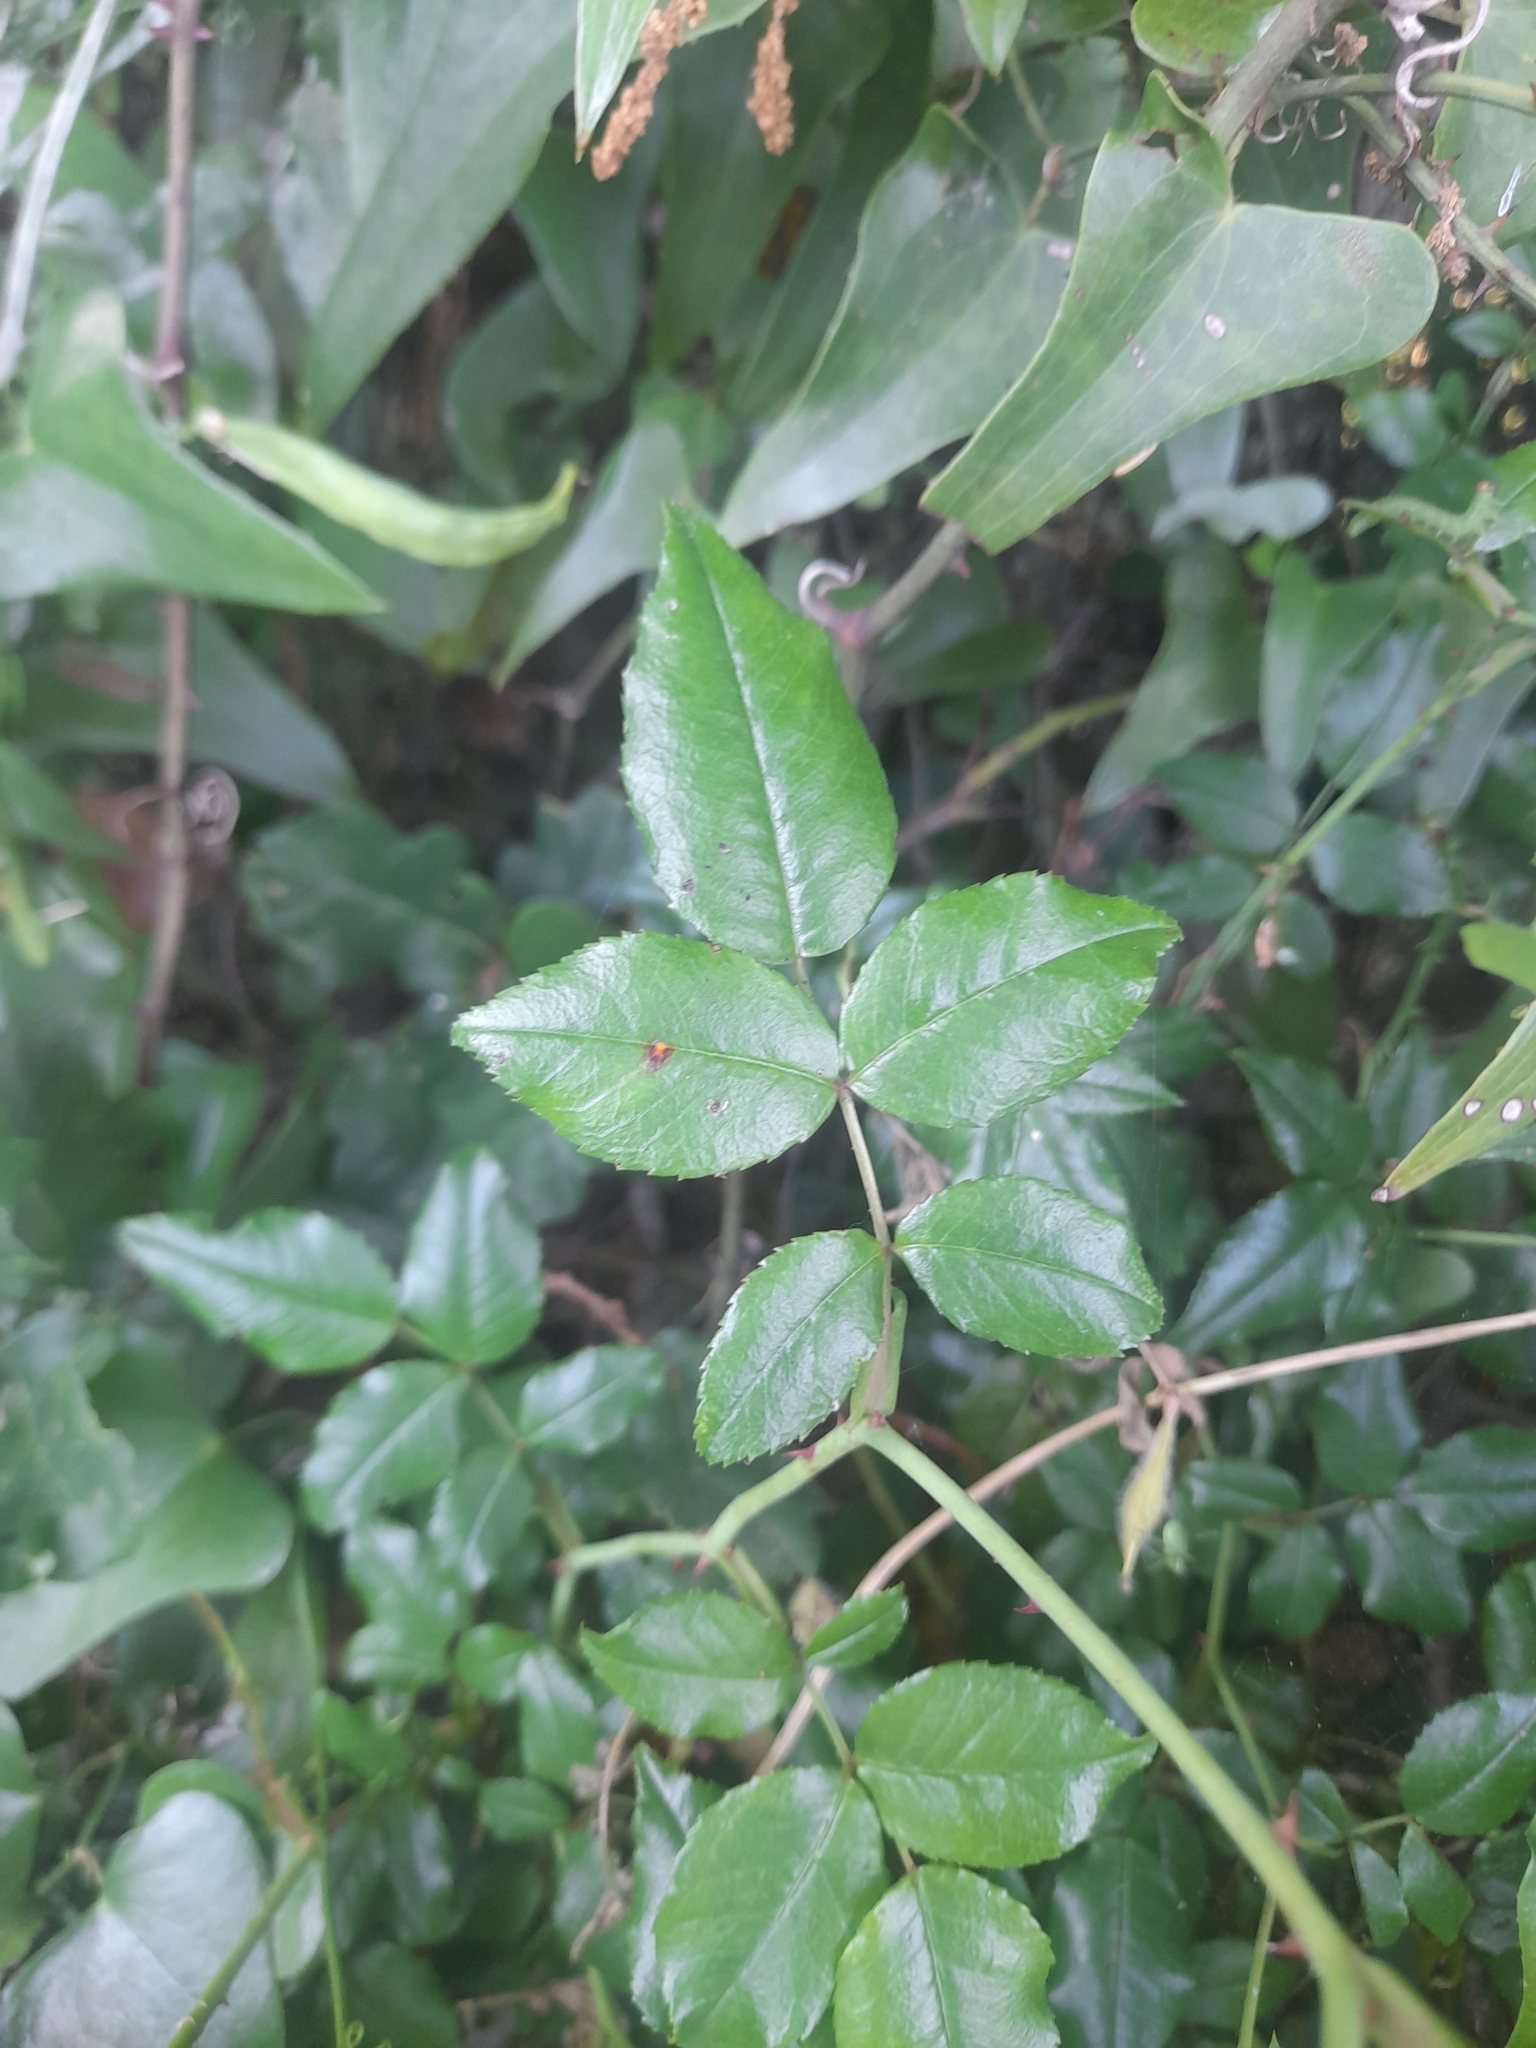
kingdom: Plantae
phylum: Tracheophyta
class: Magnoliopsida
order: Rosales
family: Rosaceae
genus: Rosa
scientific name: Rosa sempervirens
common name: Evergreen rose
